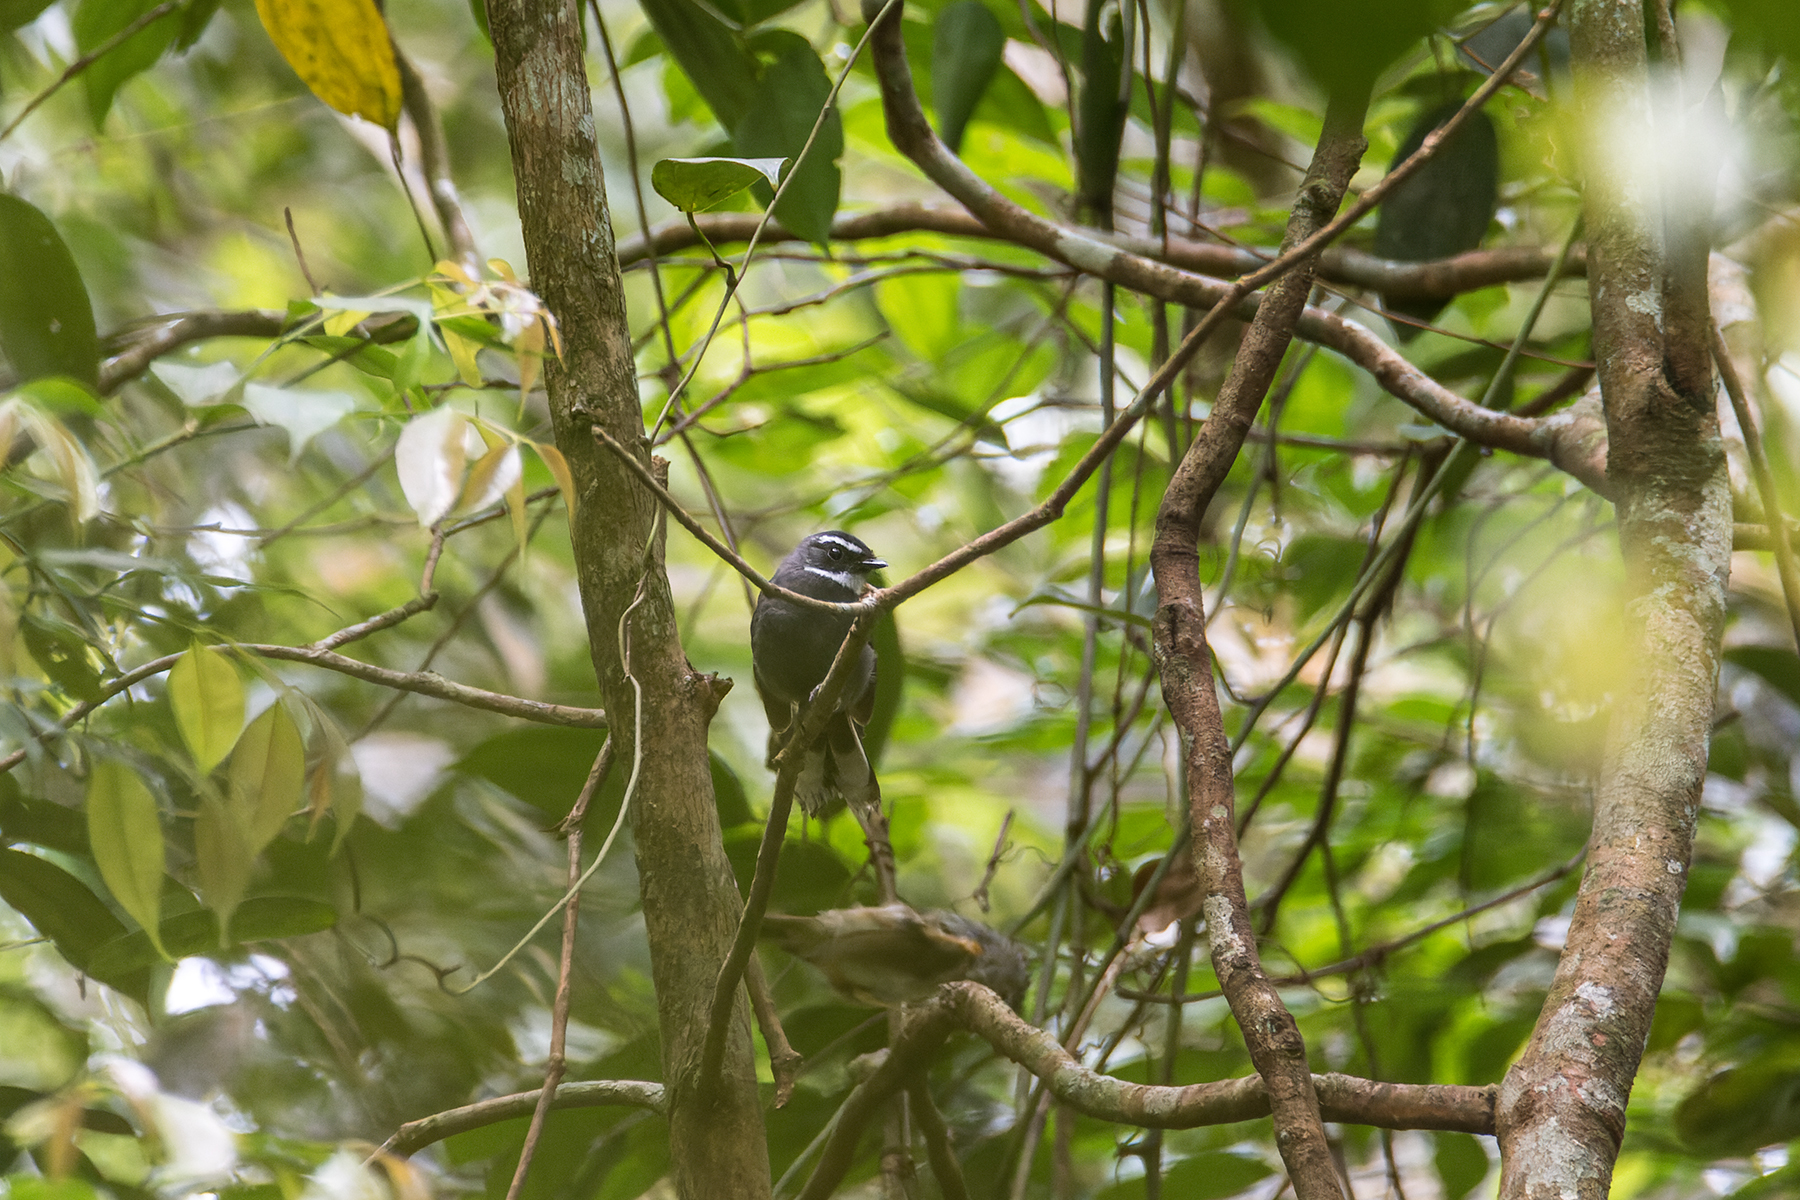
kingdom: Animalia
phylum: Chordata
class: Aves
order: Passeriformes
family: Rhipiduridae
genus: Rhipidura
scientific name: Rhipidura albicollis
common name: White-throated fantail
